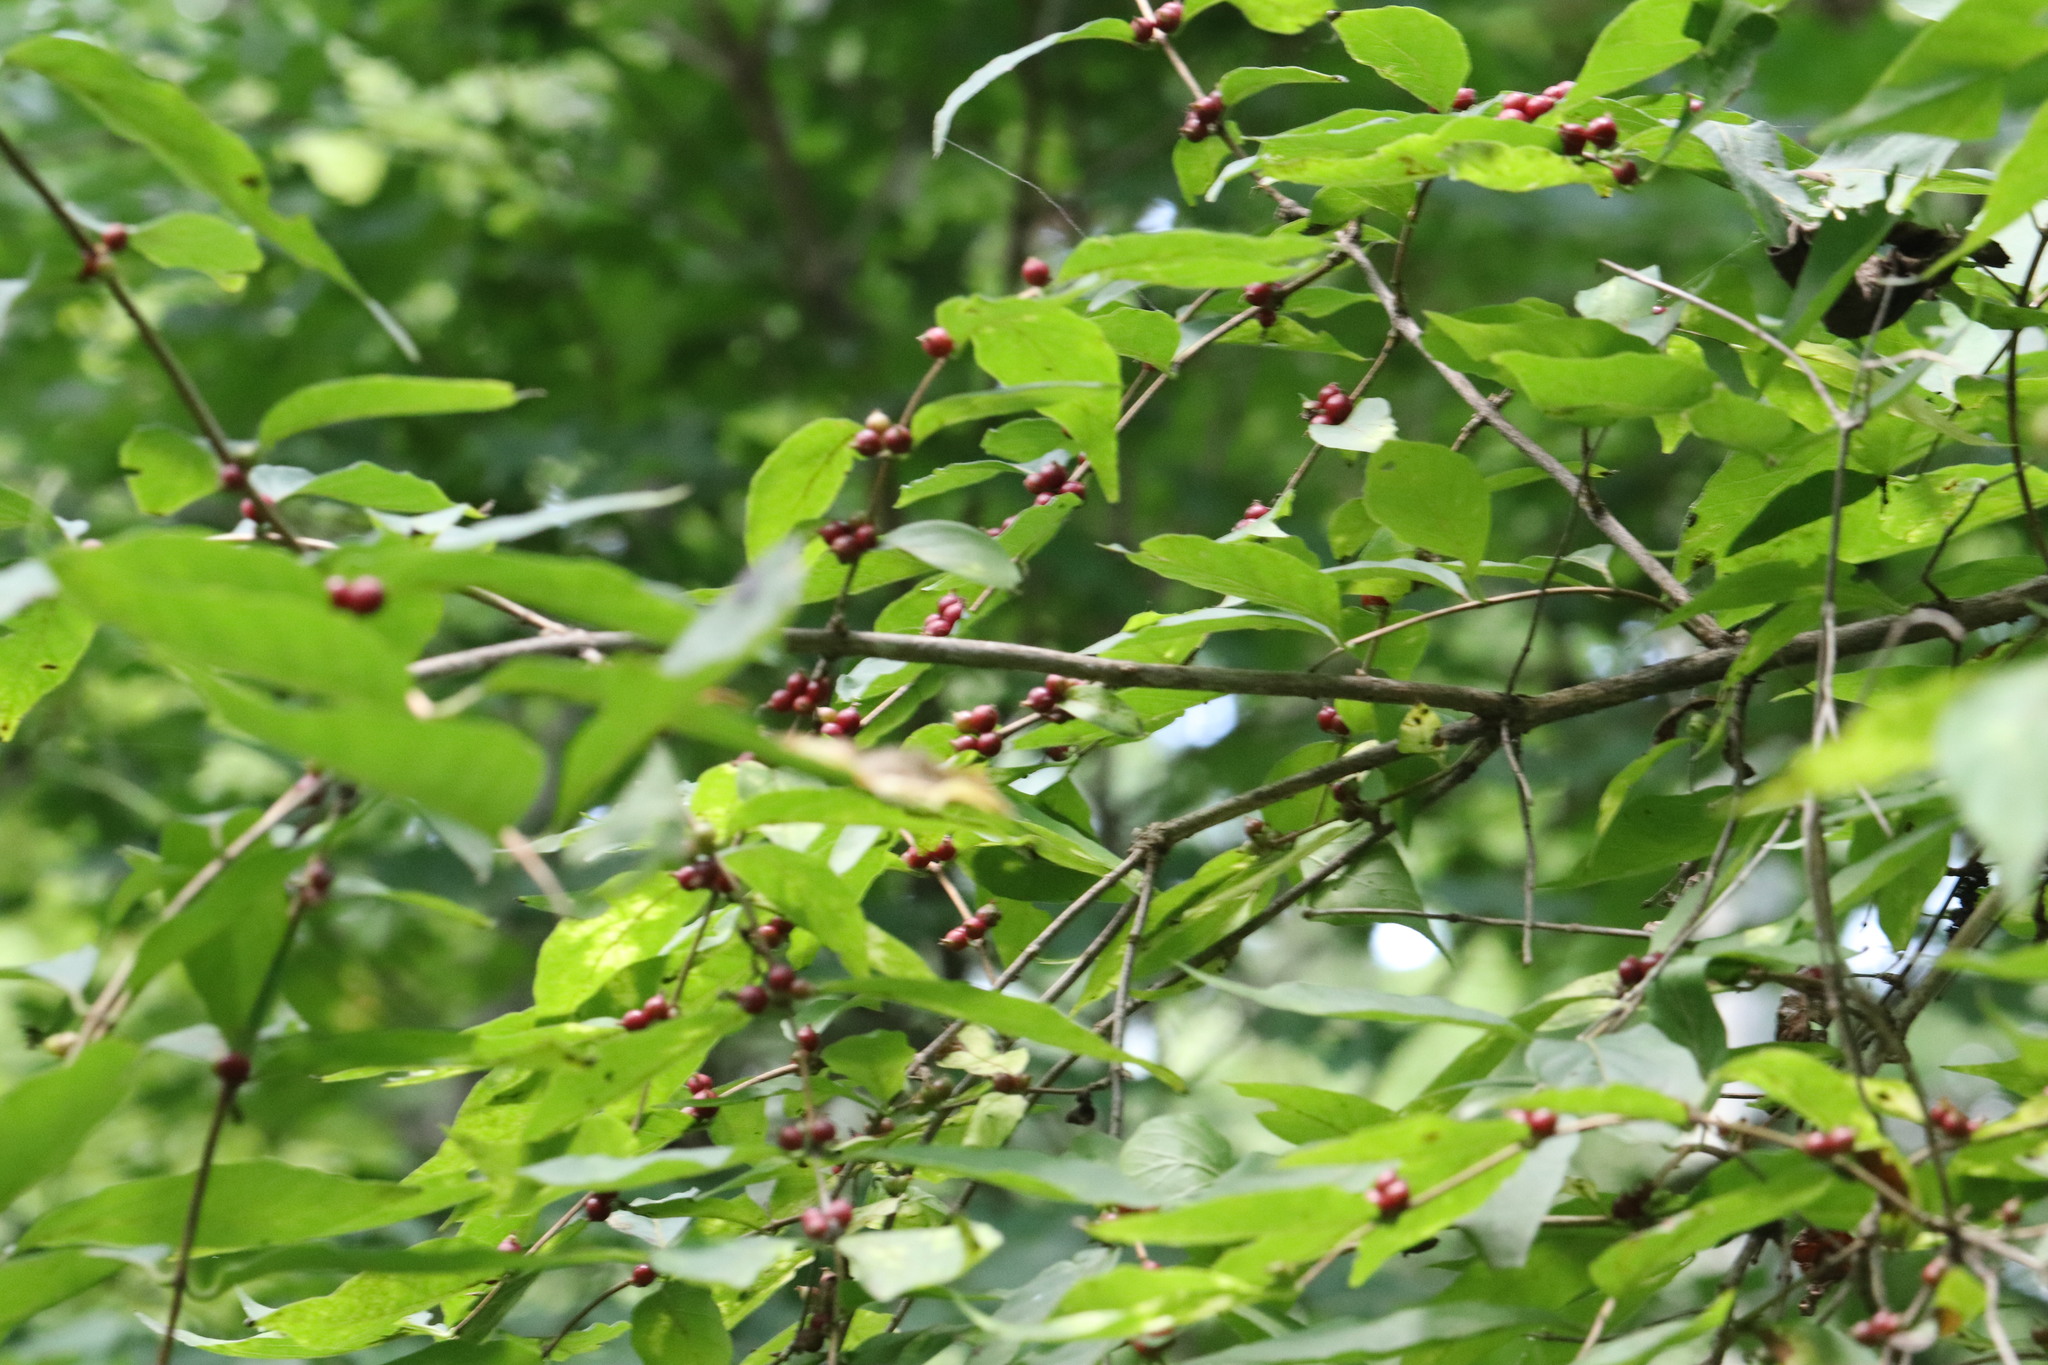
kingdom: Plantae
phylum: Tracheophyta
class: Magnoliopsida
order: Dipsacales
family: Caprifoliaceae
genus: Lonicera
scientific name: Lonicera maackii
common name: Amur honeysuckle
